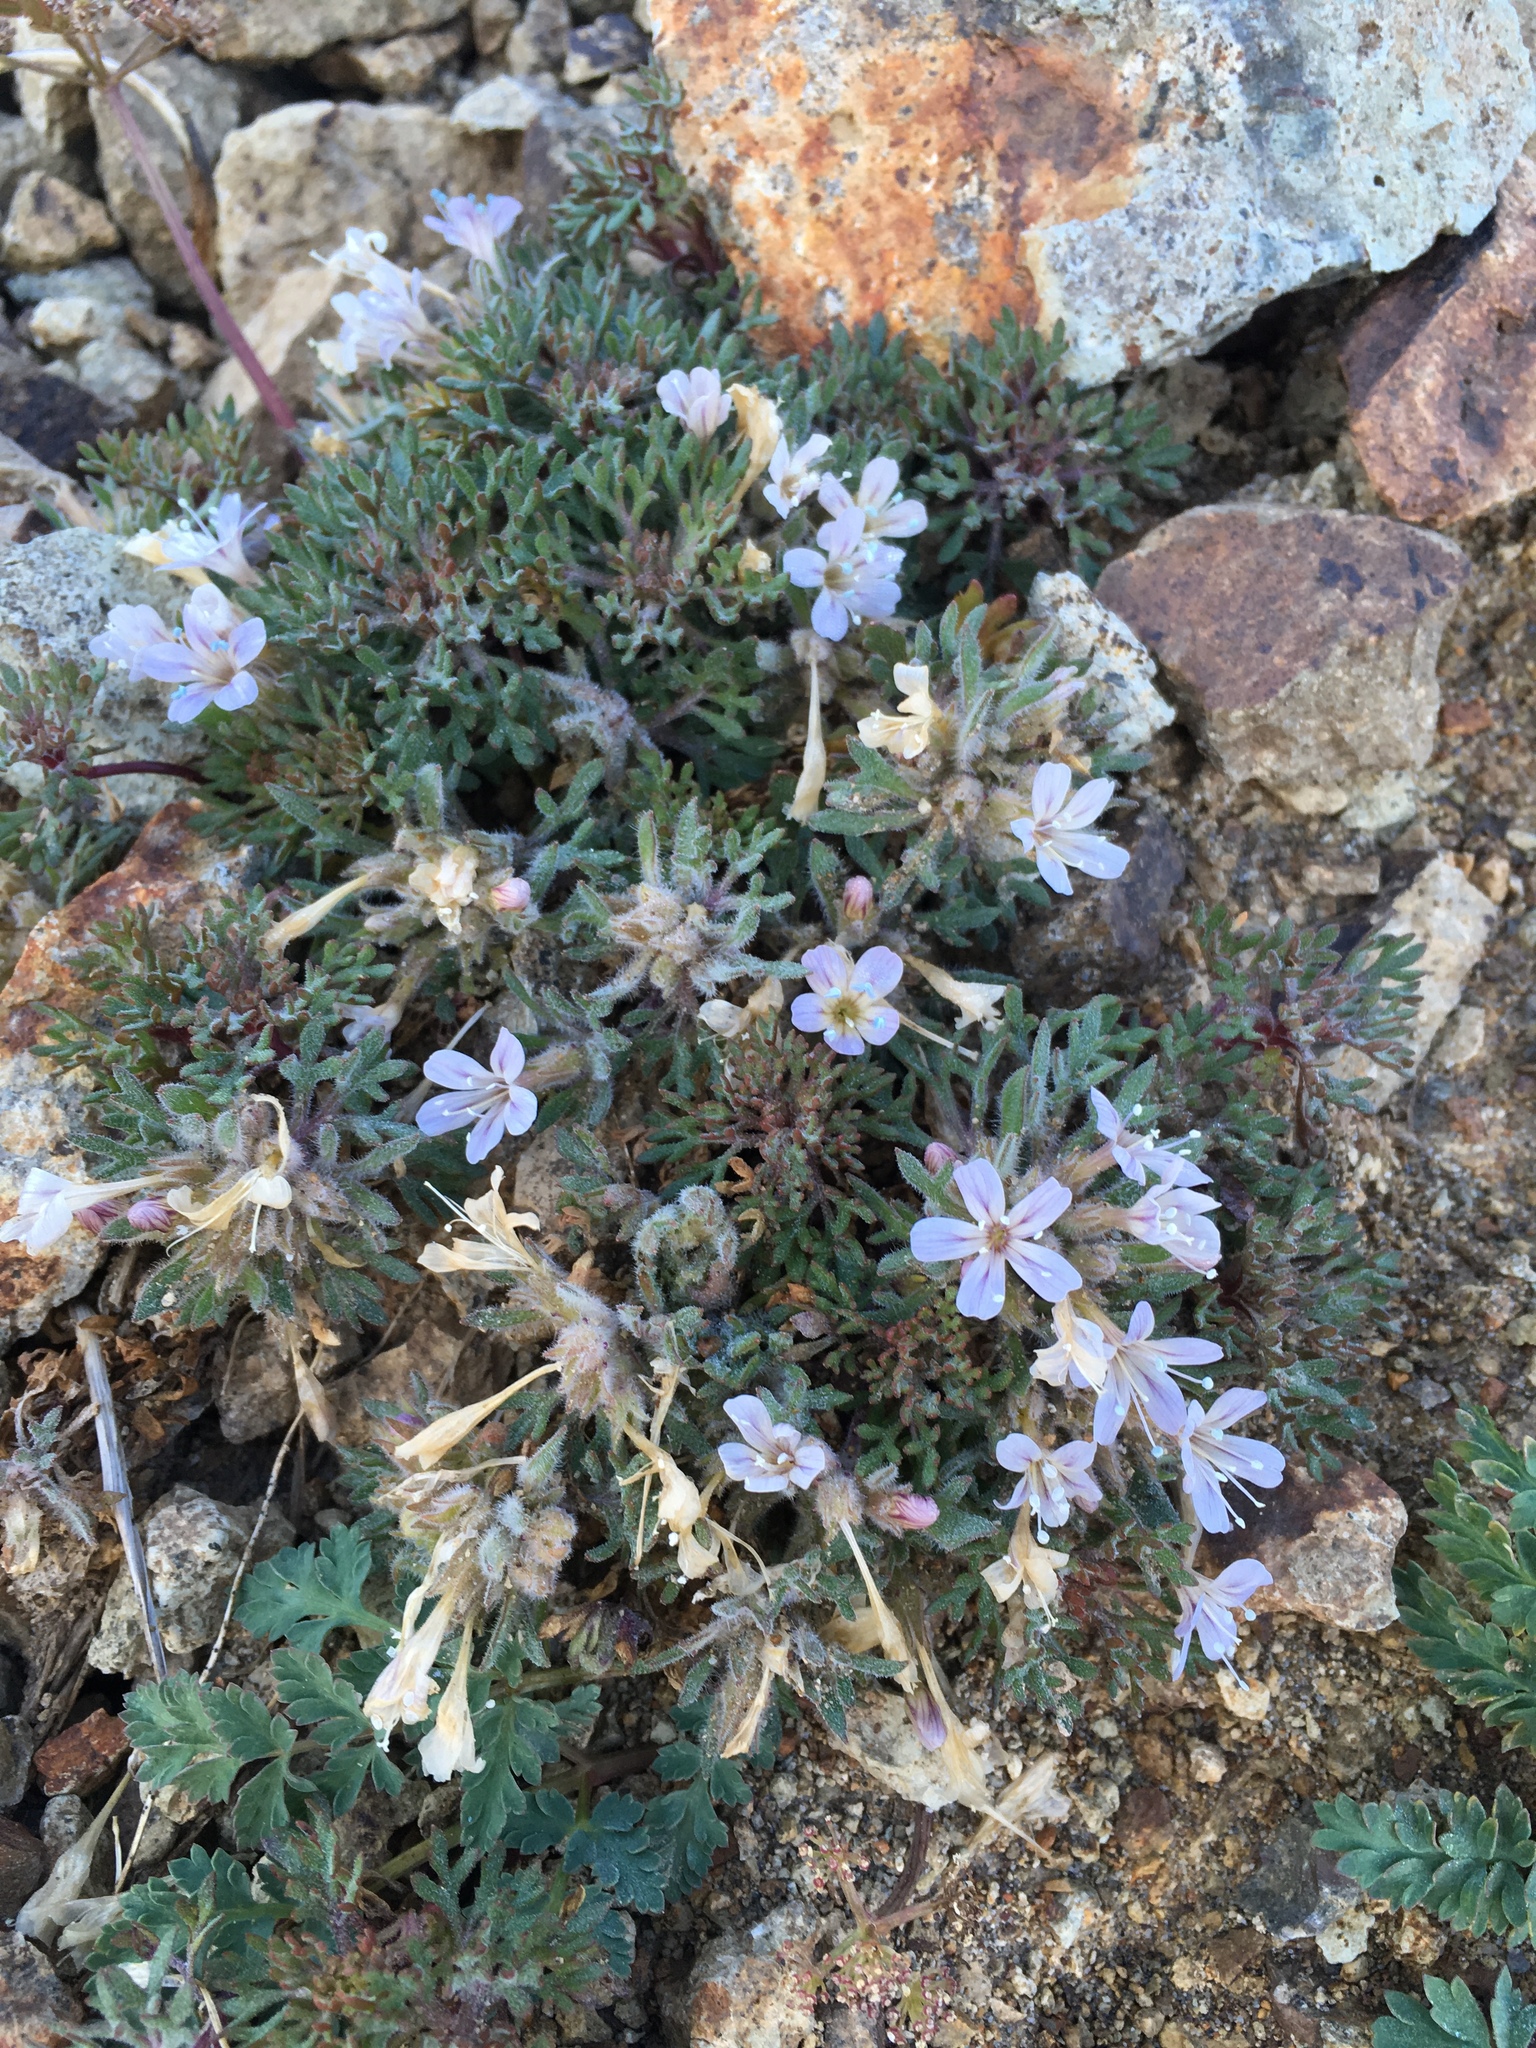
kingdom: Plantae
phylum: Tracheophyta
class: Magnoliopsida
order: Ericales
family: Polemoniaceae
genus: Collomia
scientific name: Collomia larsenii
